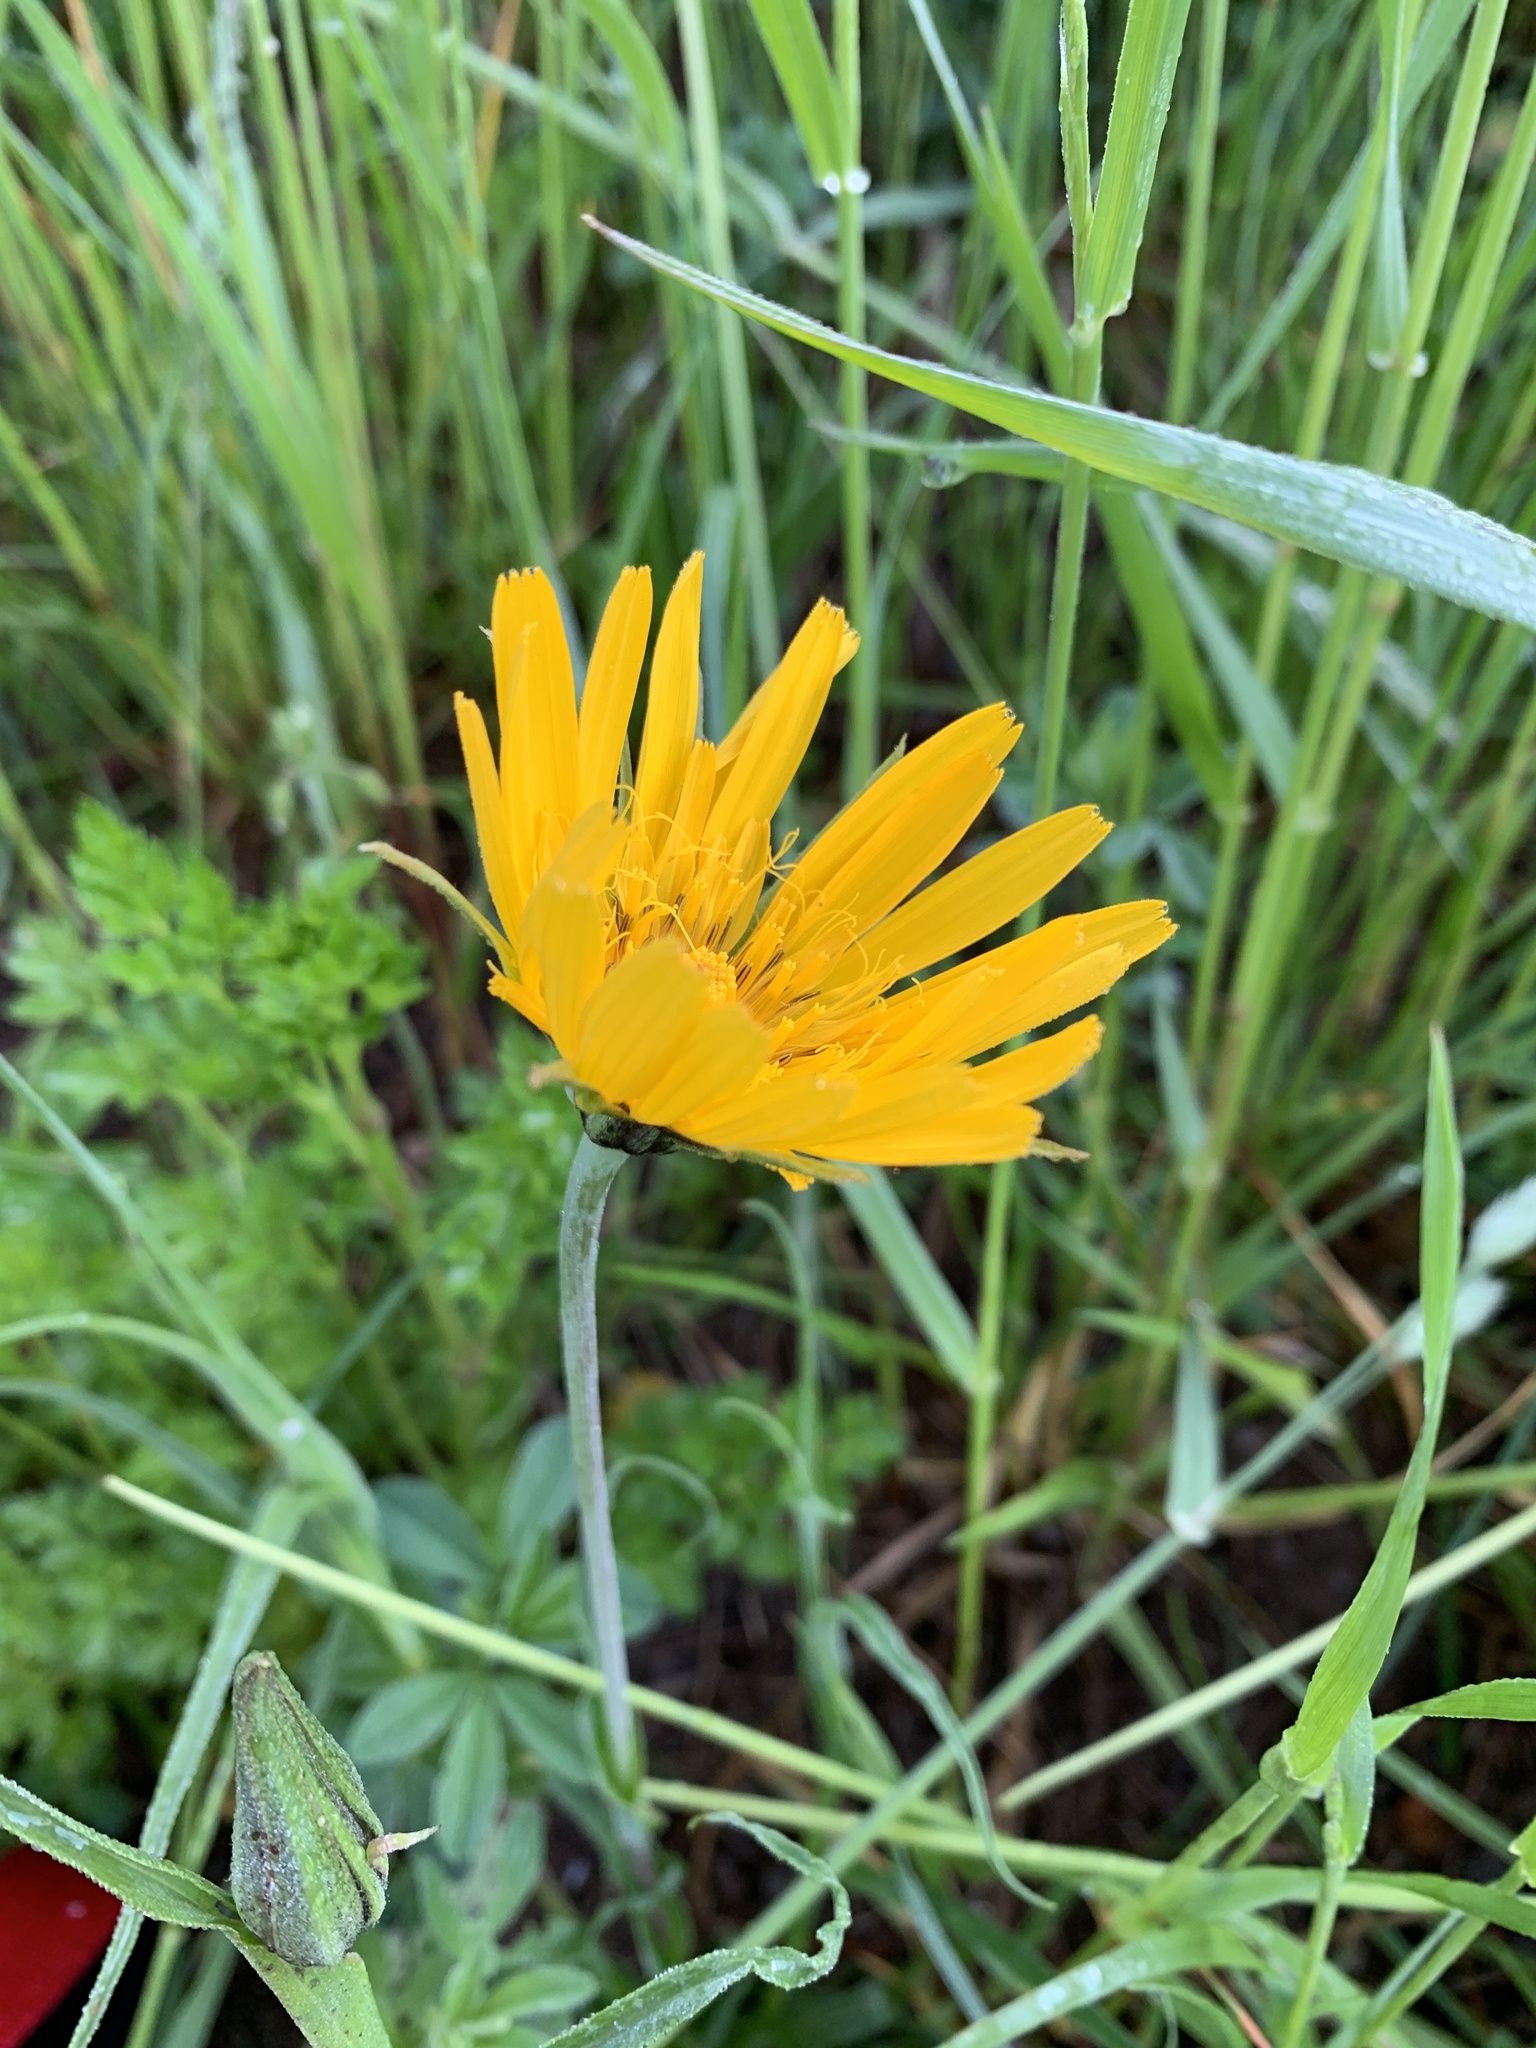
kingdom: Plantae
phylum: Tracheophyta
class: Magnoliopsida
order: Asterales
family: Asteraceae
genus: Tragopogon
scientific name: Tragopogon orientalis
